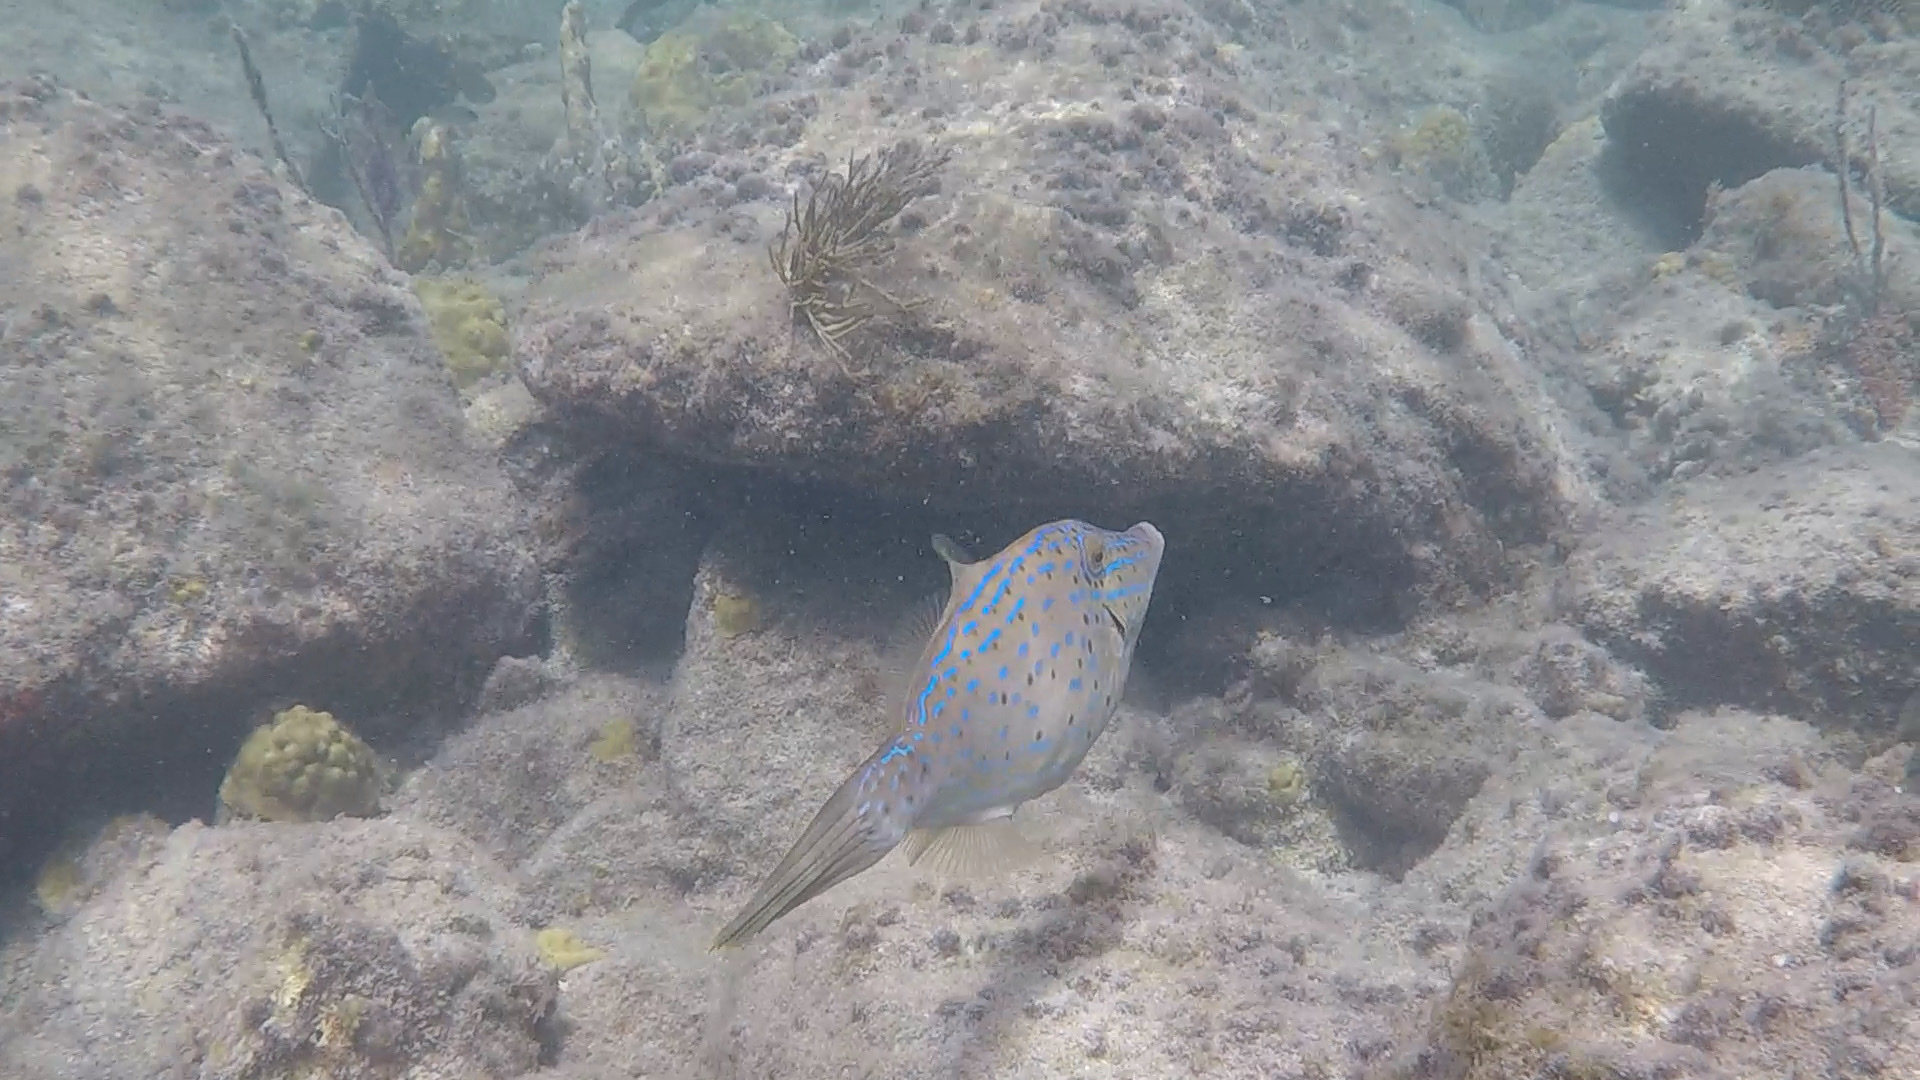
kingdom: Animalia
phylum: Chordata
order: Tetraodontiformes
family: Monacanthidae
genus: Aluterus
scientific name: Aluterus scriptus
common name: Scribbled leatherjacket filefish
